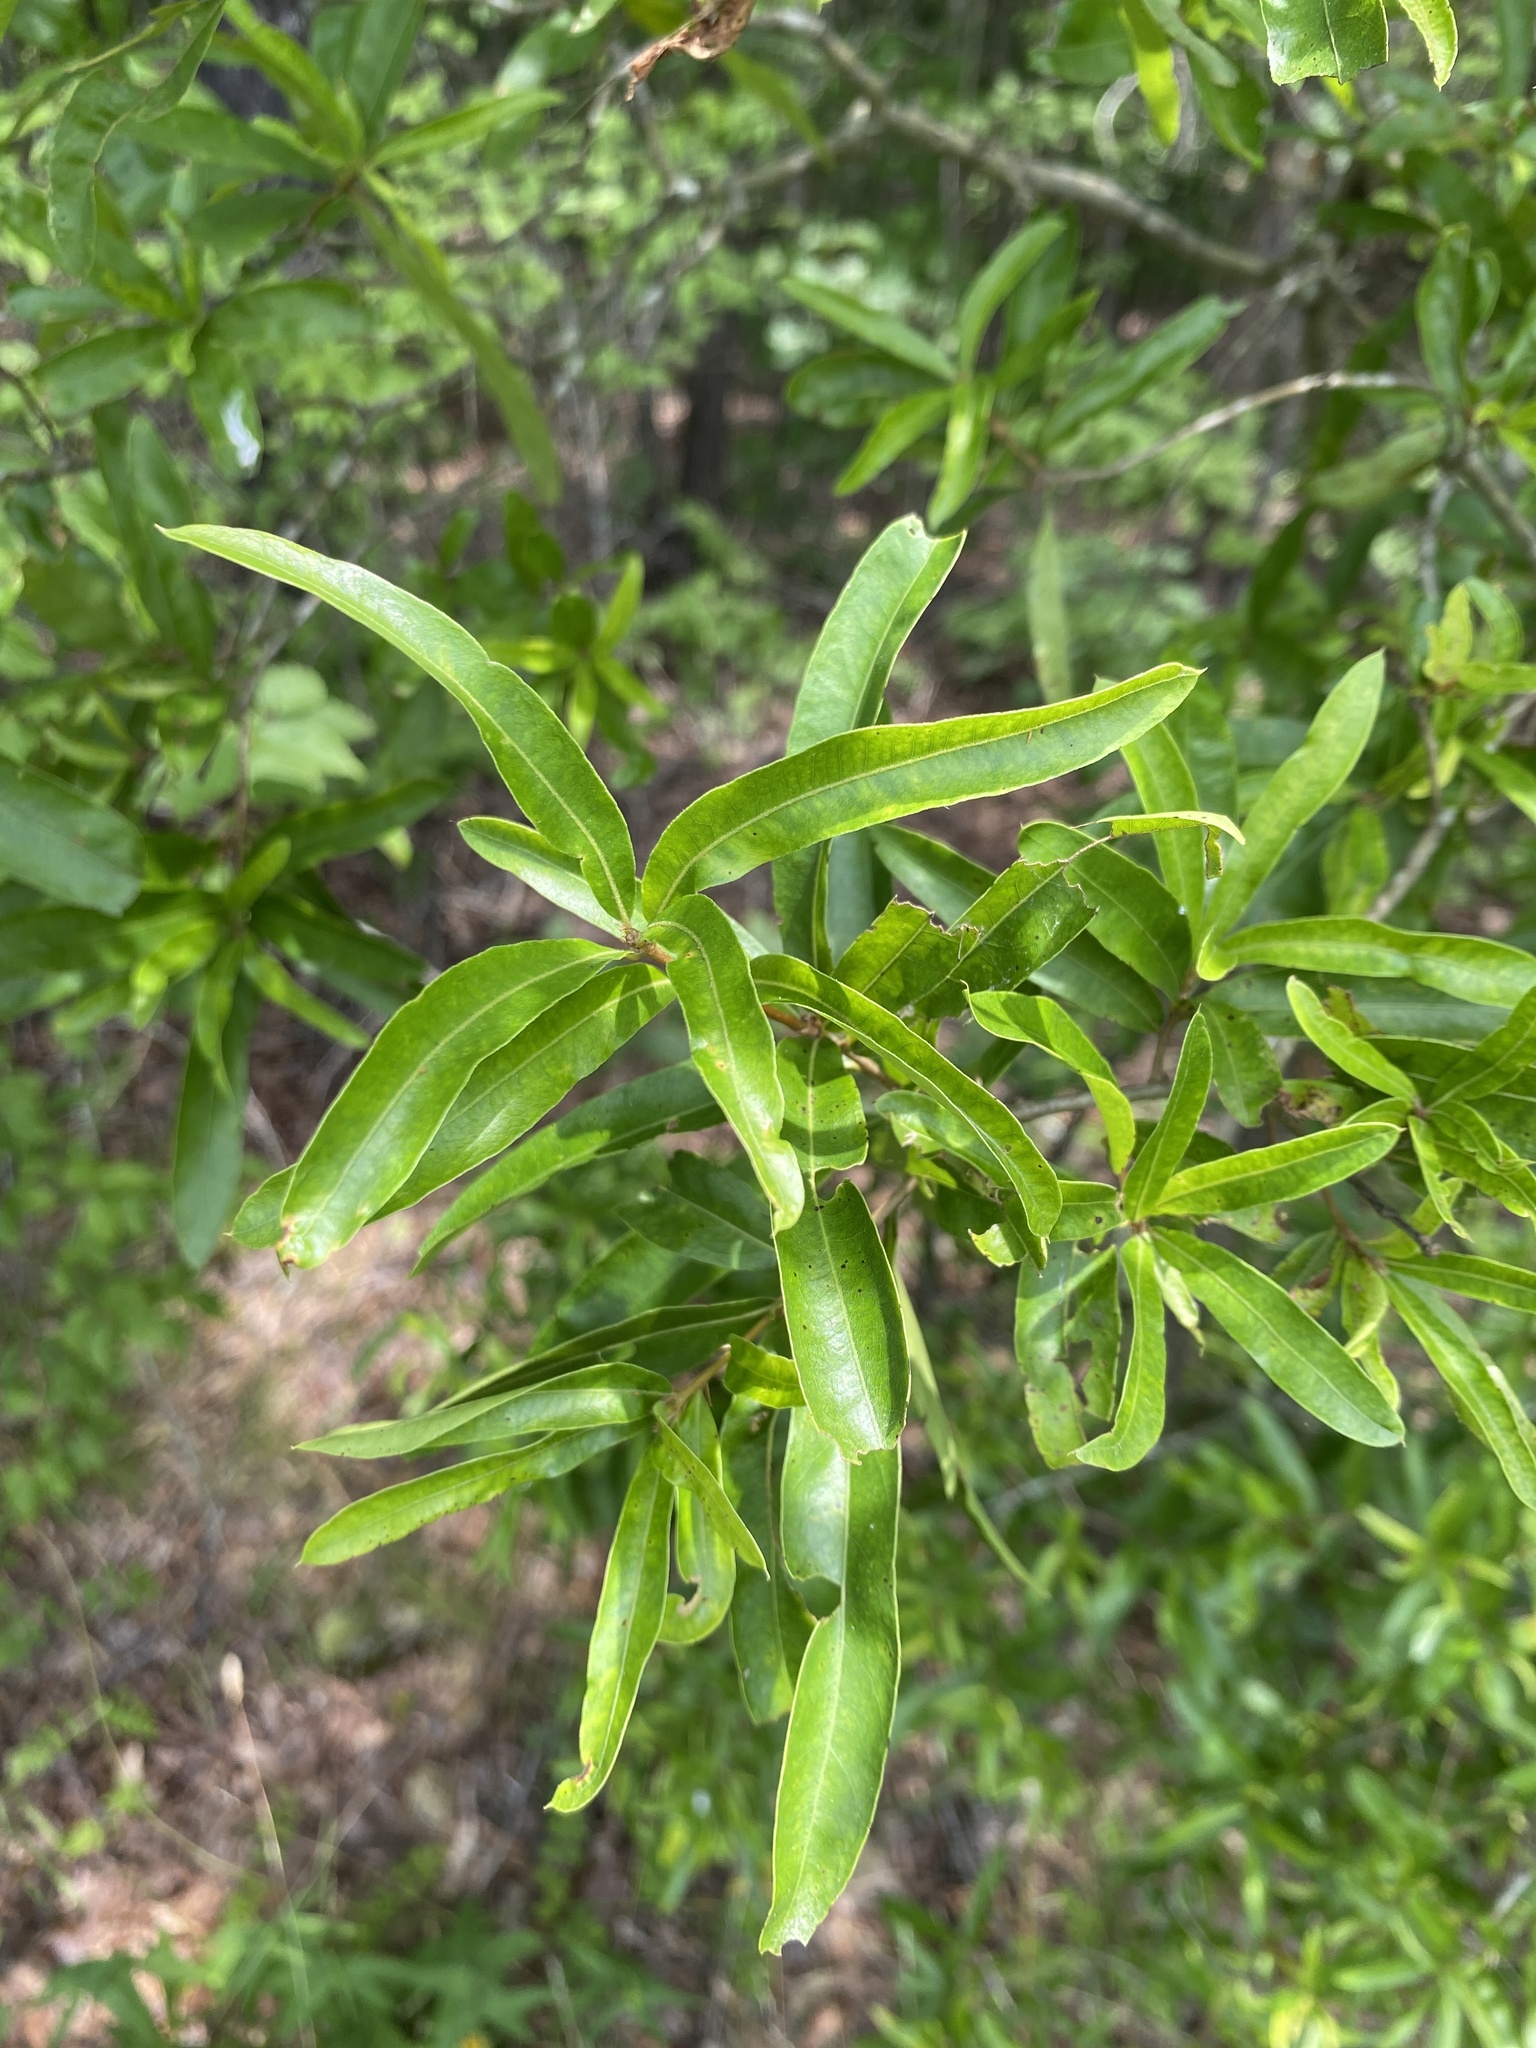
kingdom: Plantae
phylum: Tracheophyta
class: Magnoliopsida
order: Fagales
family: Fagaceae
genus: Quercus
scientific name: Quercus phellos
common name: Willow oak
